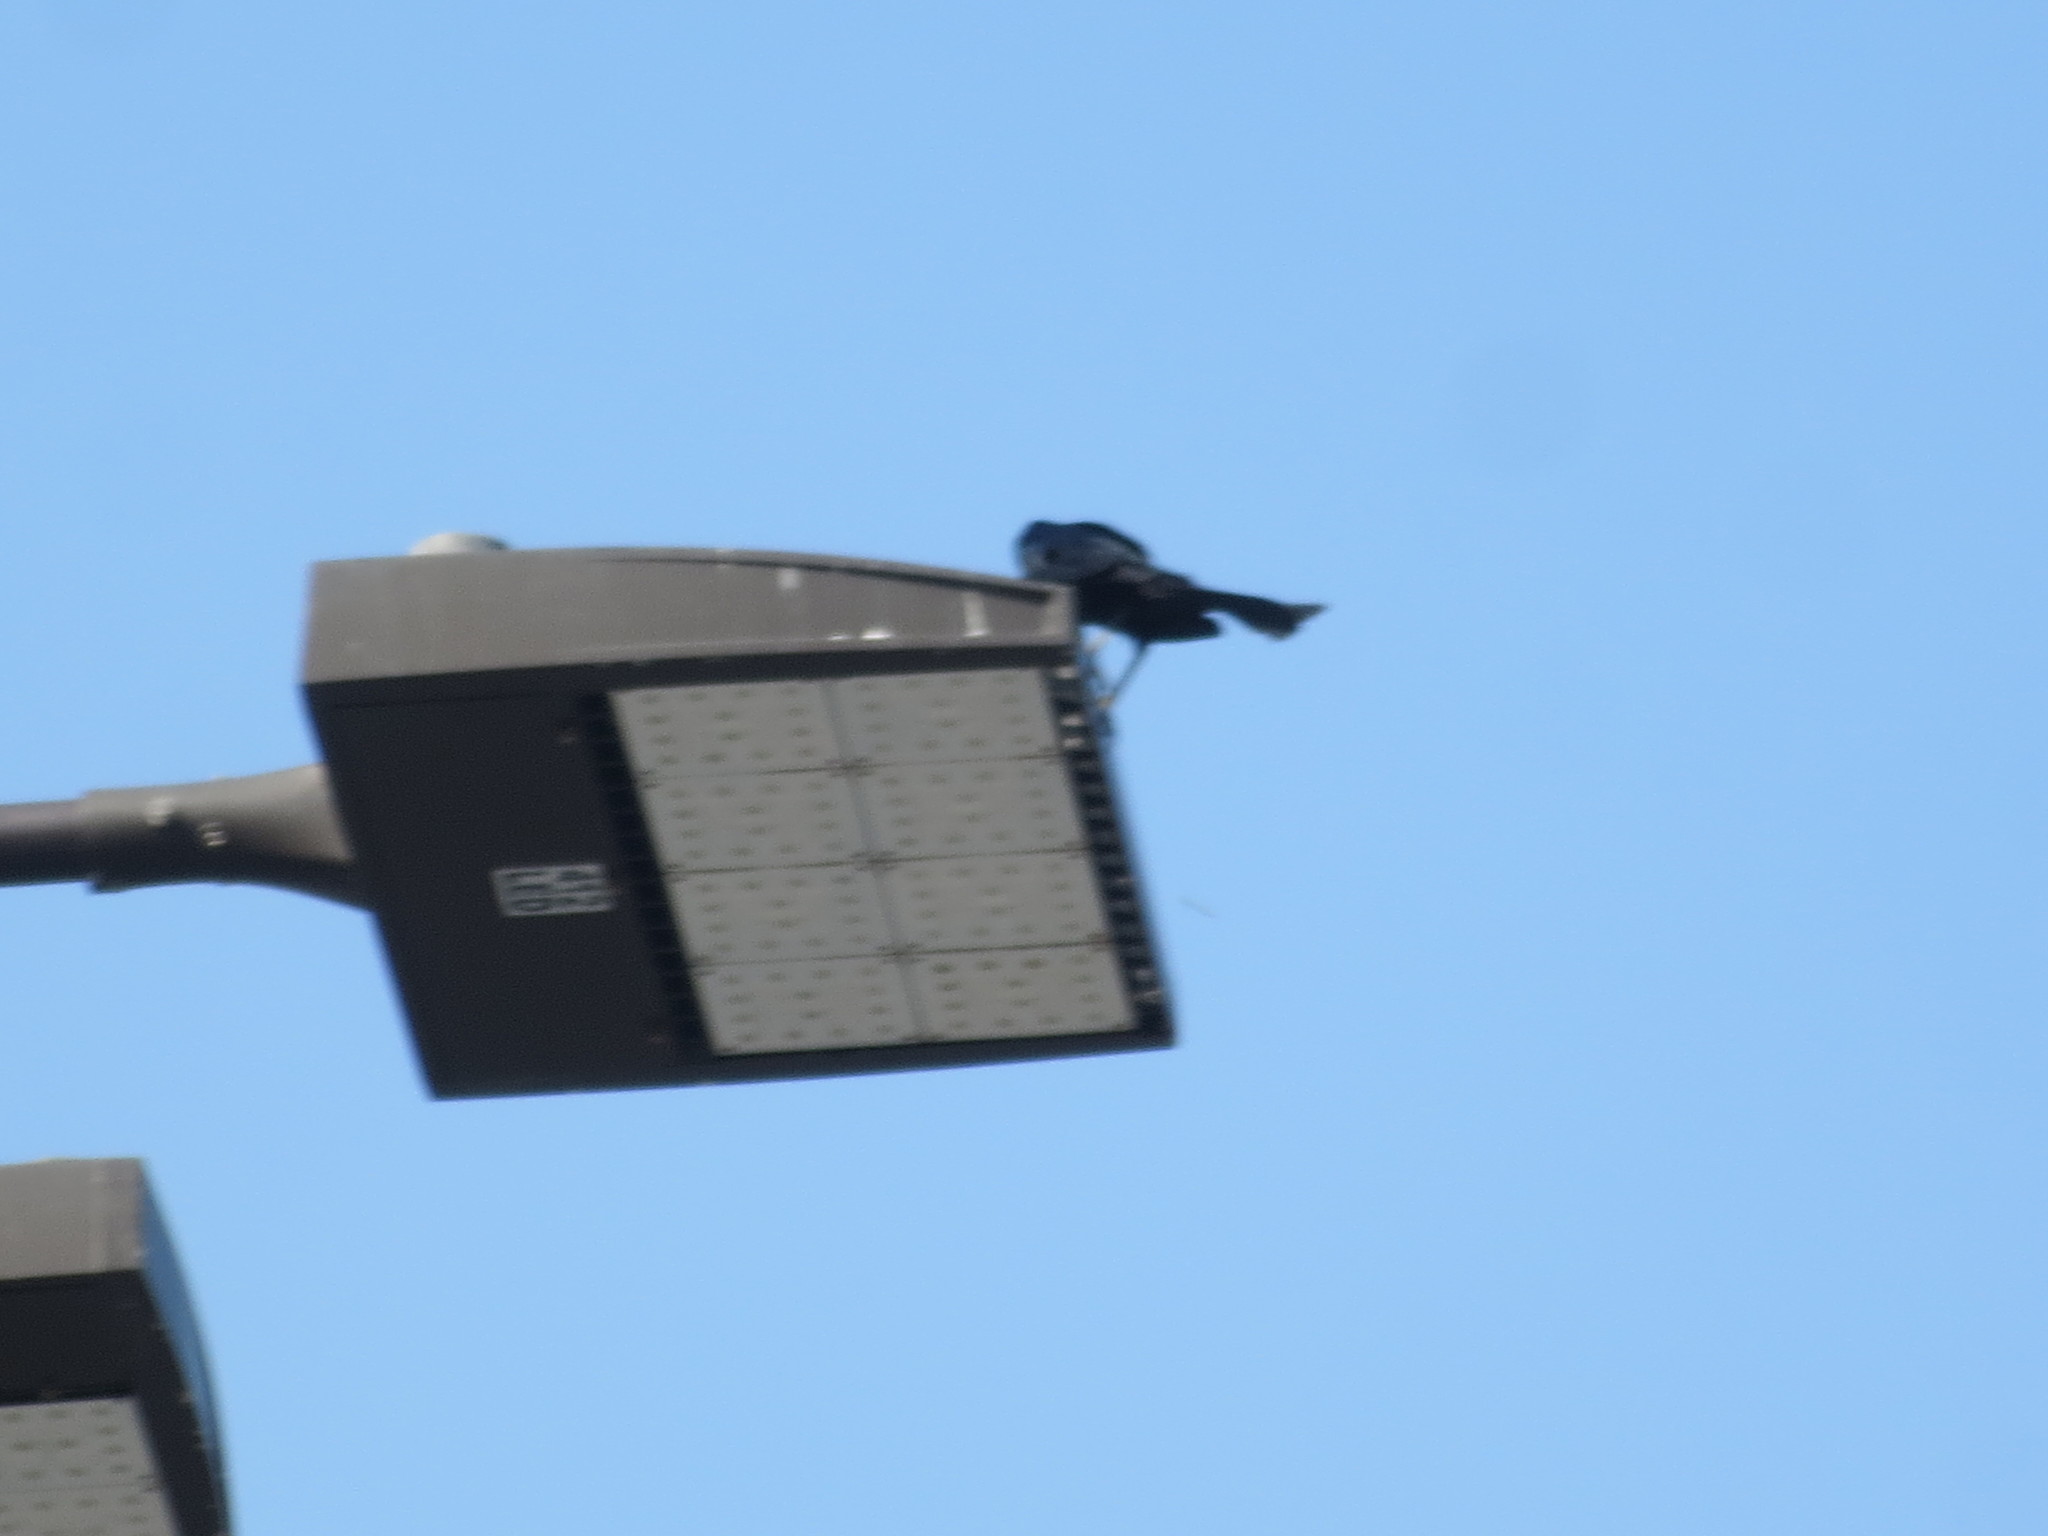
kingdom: Animalia
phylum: Chordata
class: Aves
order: Passeriformes
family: Icteridae
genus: Quiscalus
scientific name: Quiscalus major
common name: Boat-tailed grackle
